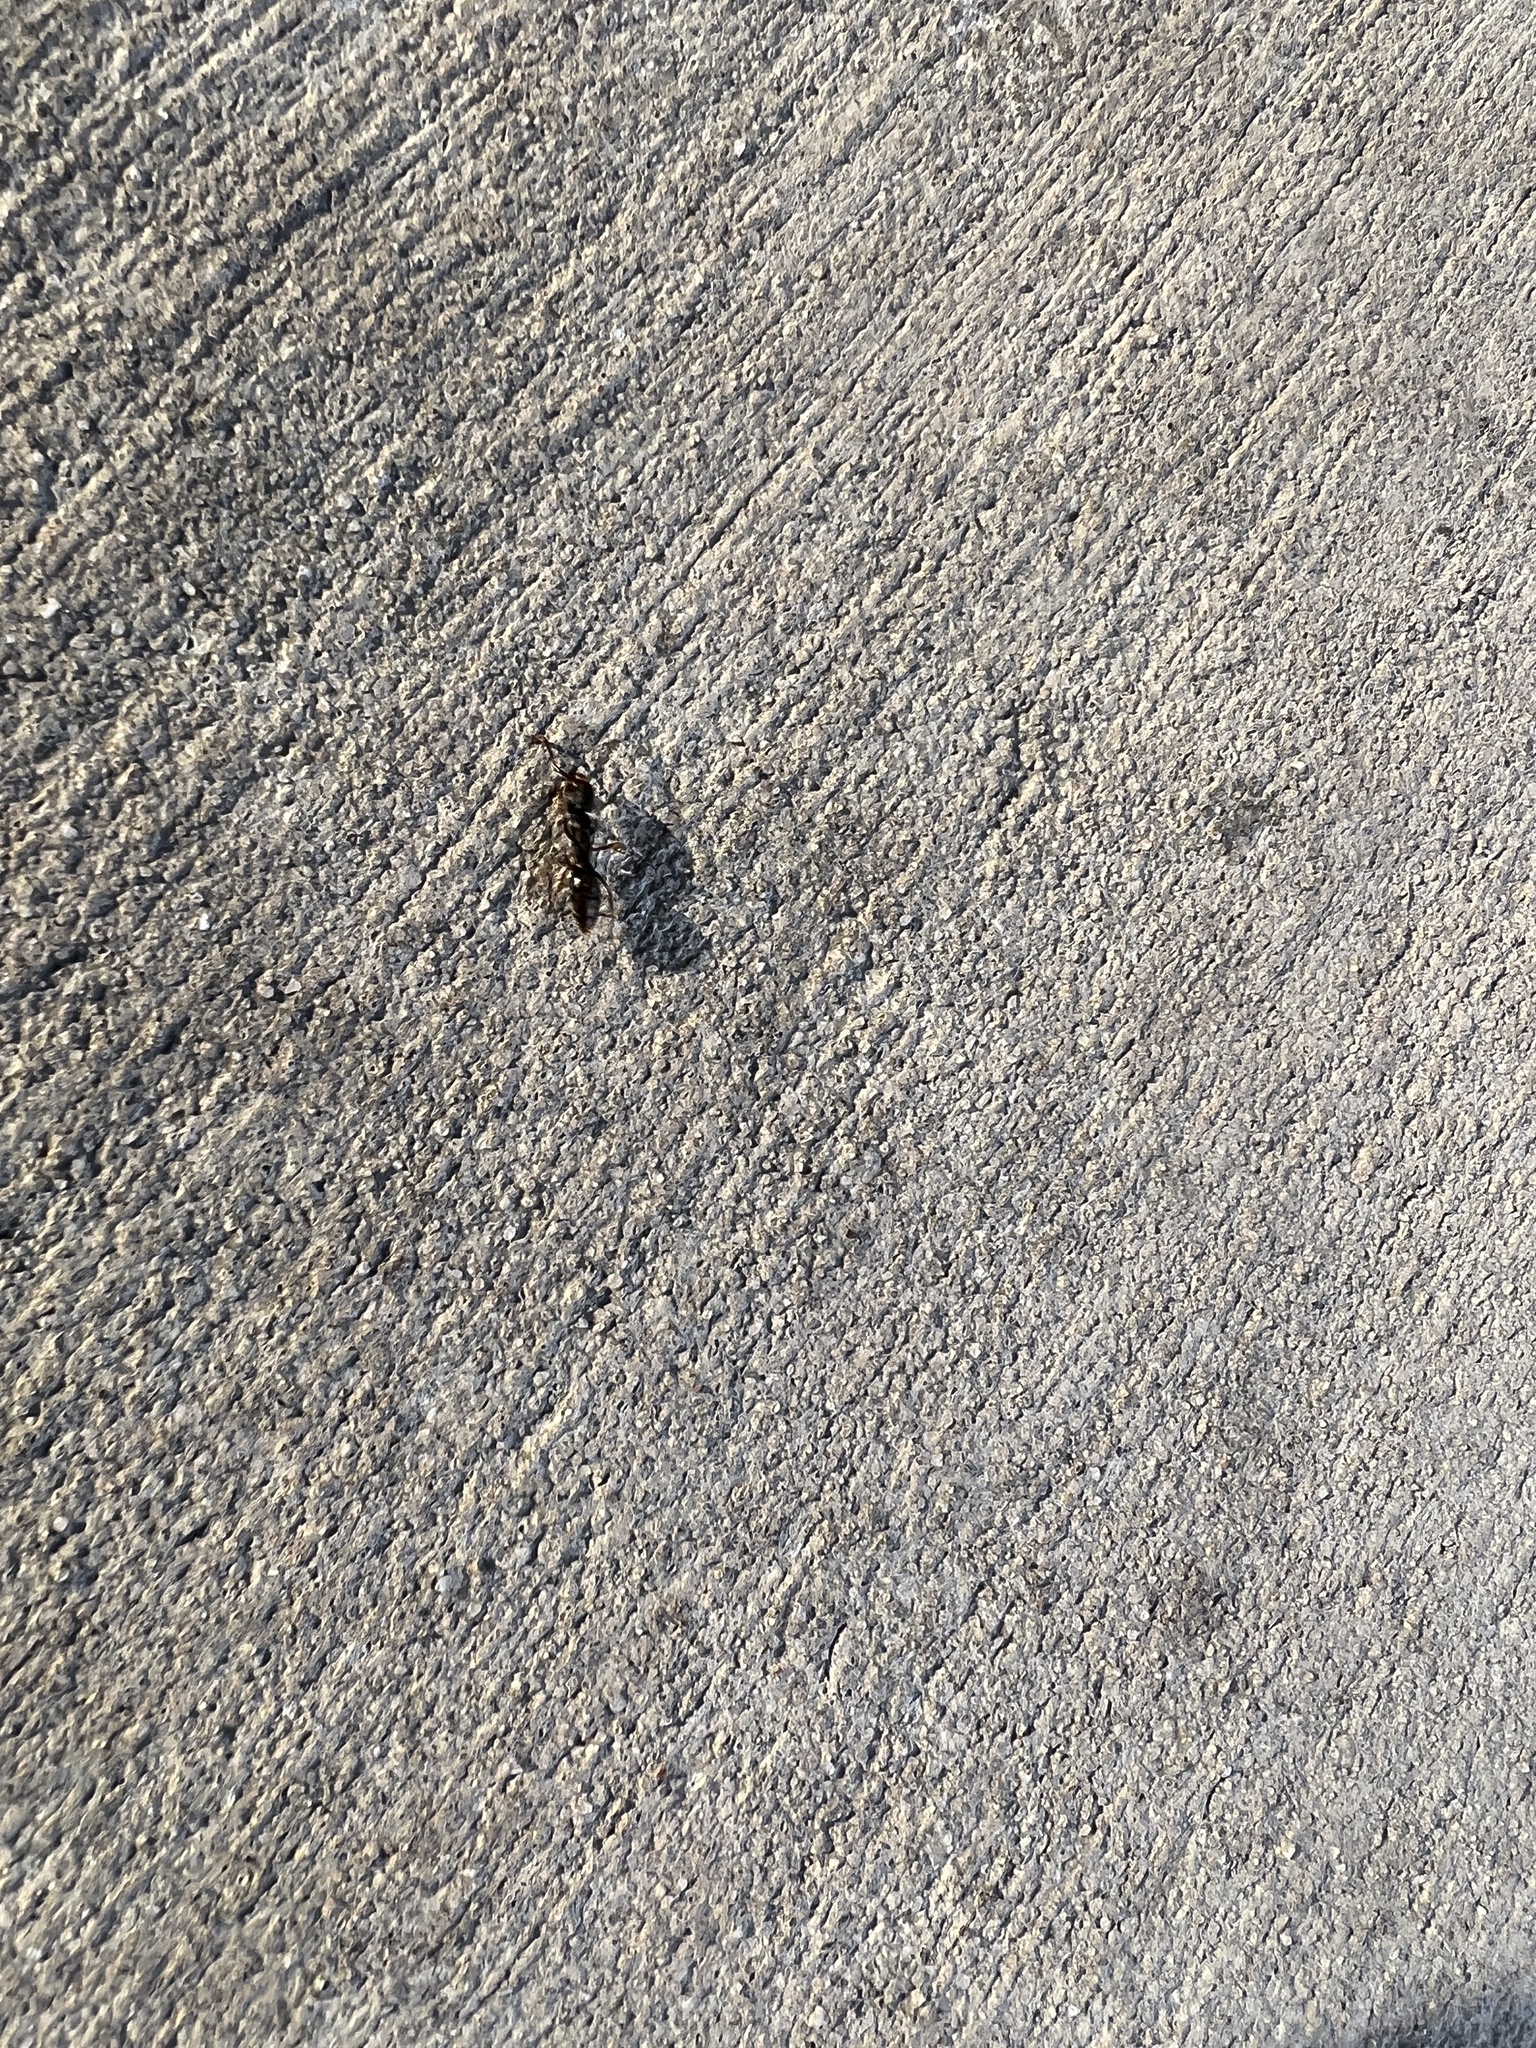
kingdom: Animalia
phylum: Arthropoda
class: Insecta
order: Hymenoptera
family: Formicidae
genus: Pachycondyla
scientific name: Pachycondyla harpax
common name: Ant
